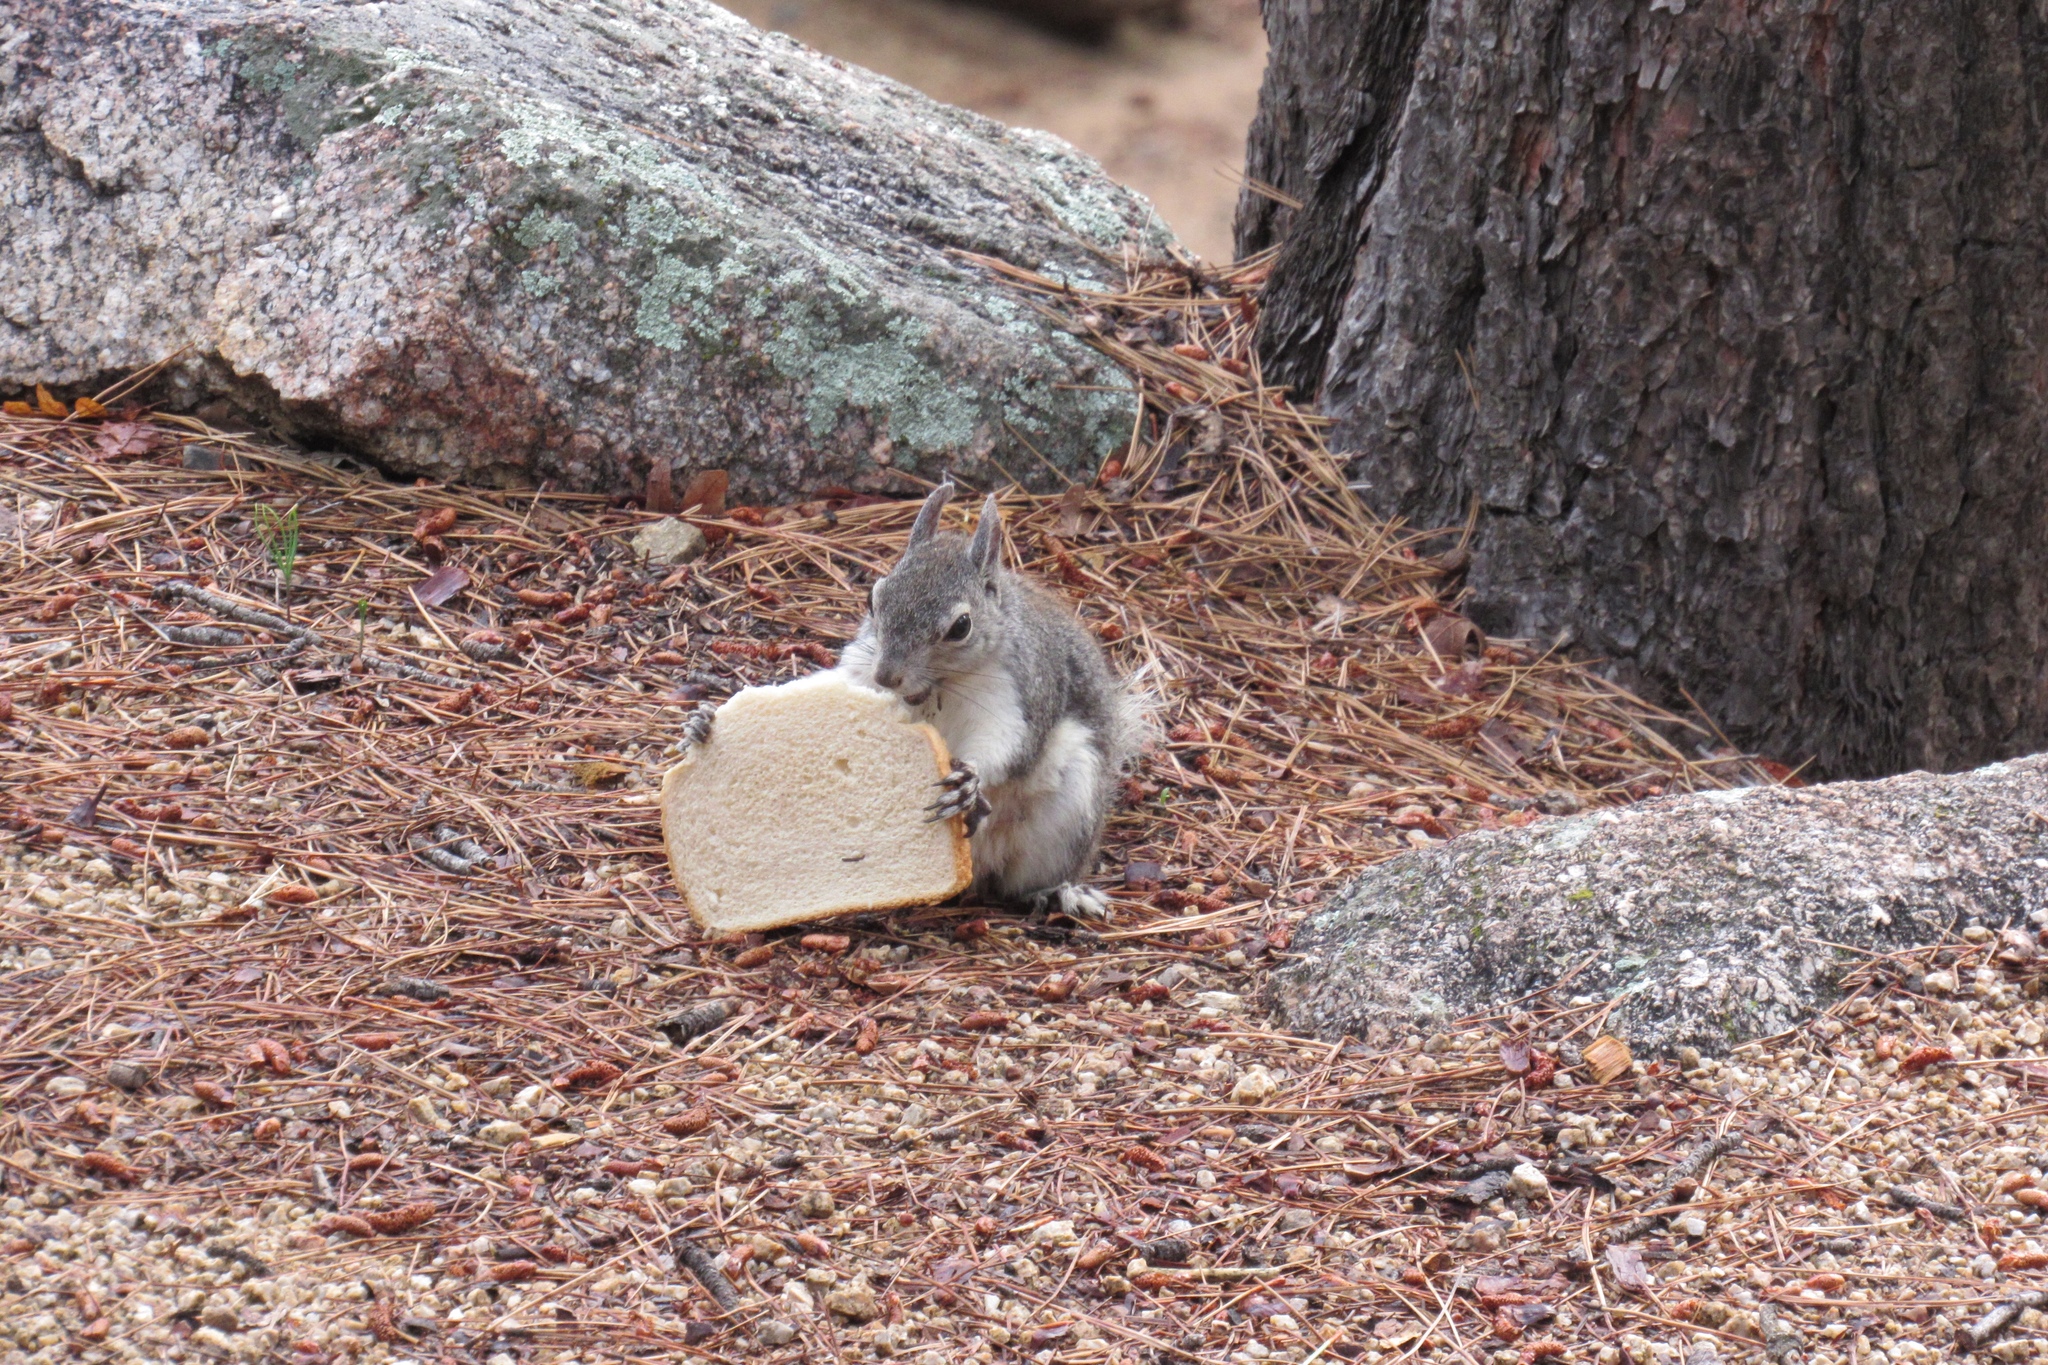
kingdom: Animalia
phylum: Chordata
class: Mammalia
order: Rodentia
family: Sciuridae
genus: Sciurus
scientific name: Sciurus aberti
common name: Abert's squirrel
